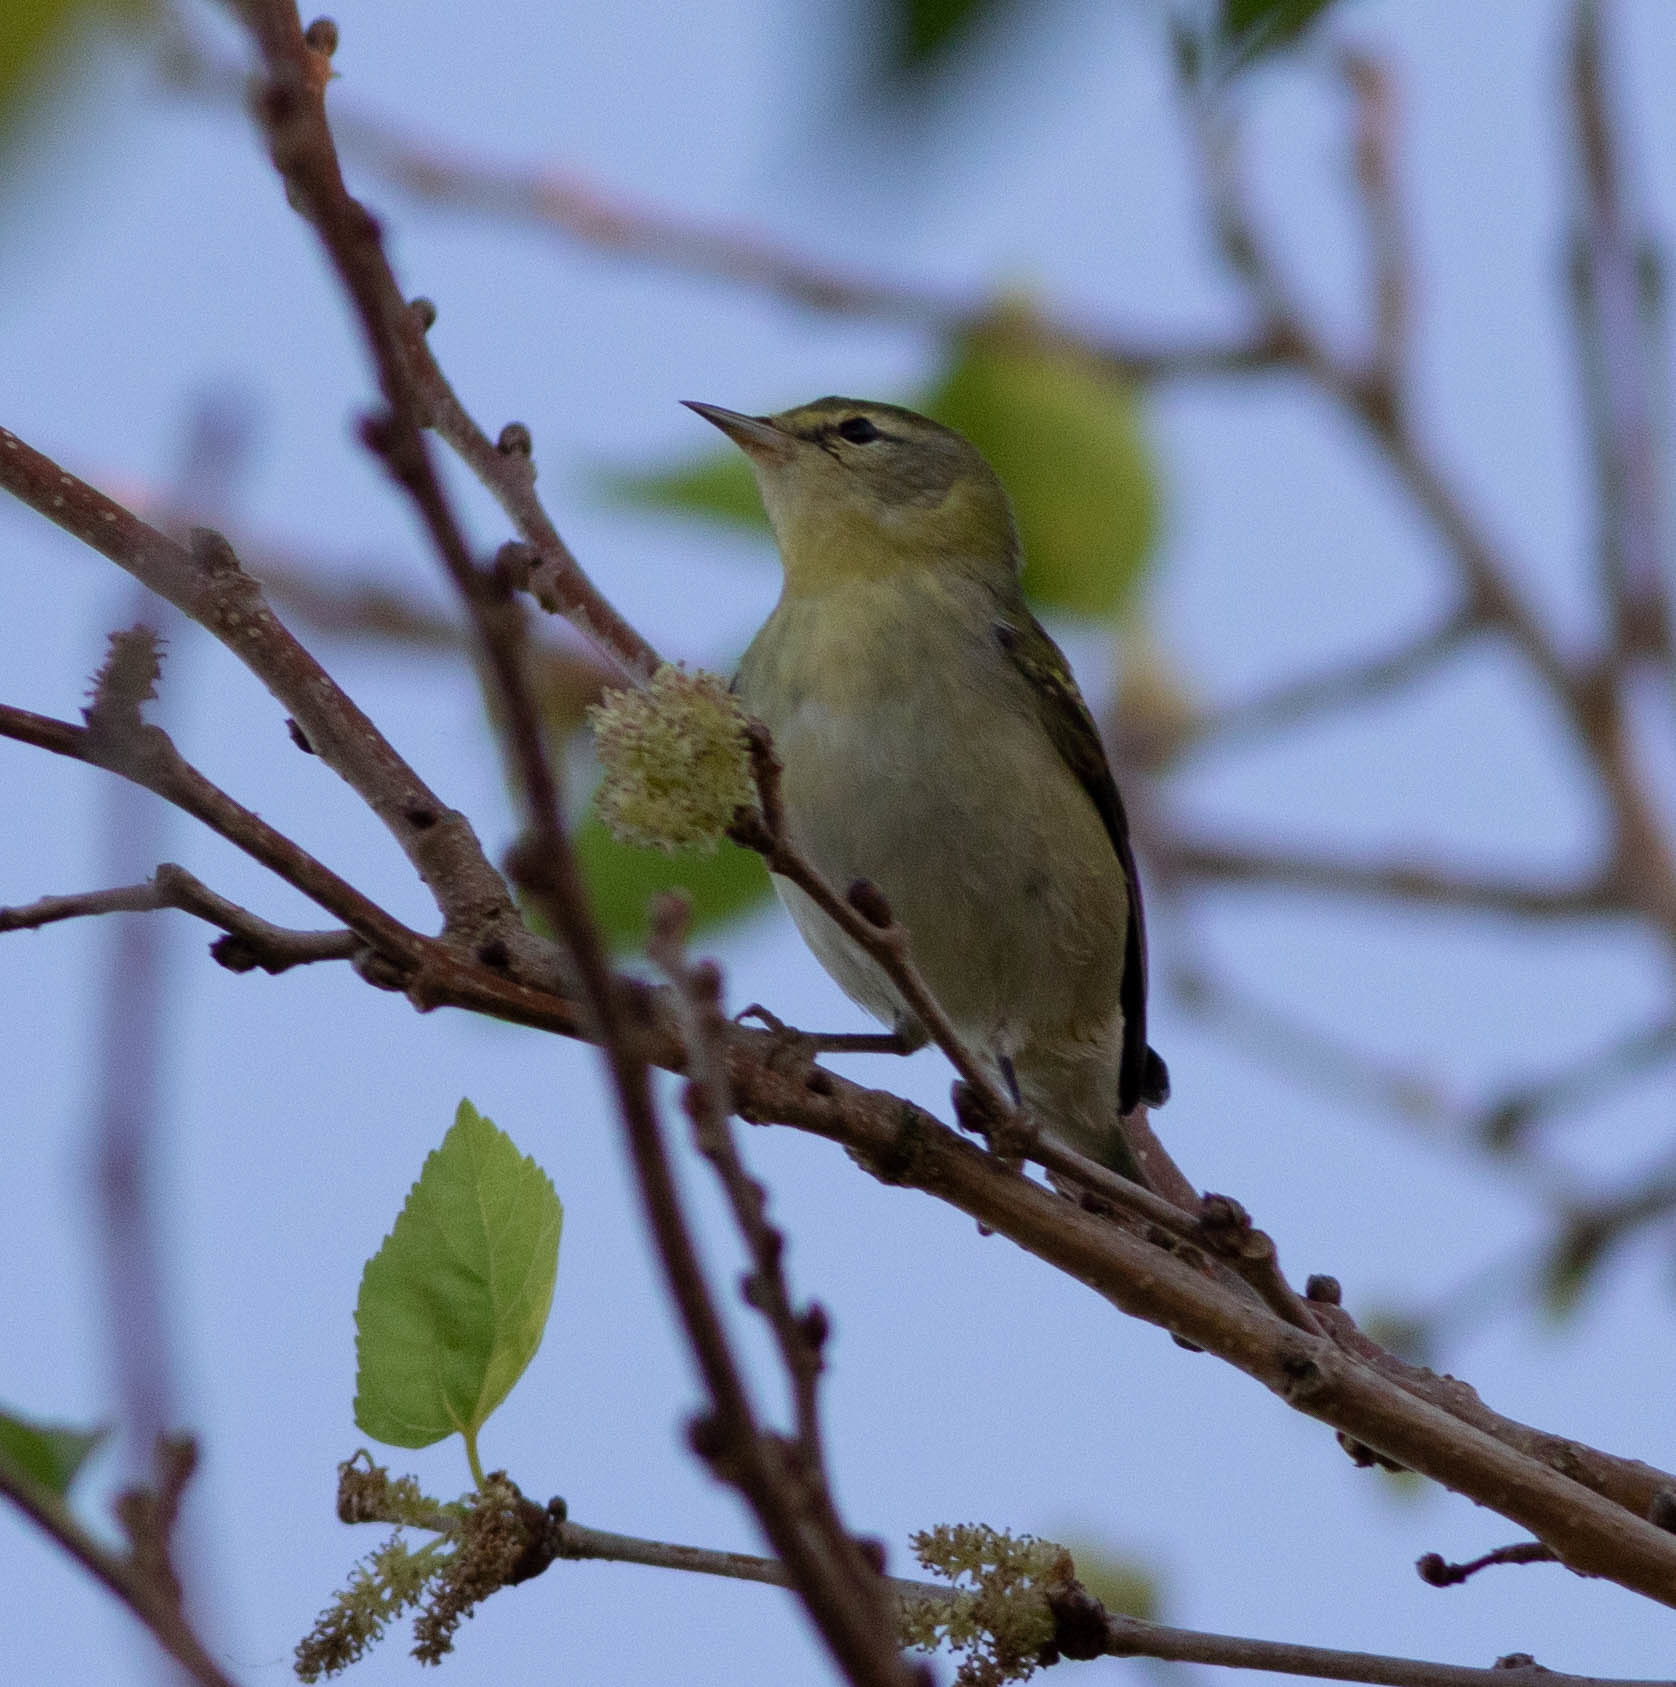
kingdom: Animalia
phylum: Chordata
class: Aves
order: Passeriformes
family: Parulidae
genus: Leiothlypis
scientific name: Leiothlypis peregrina
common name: Tennessee warbler
